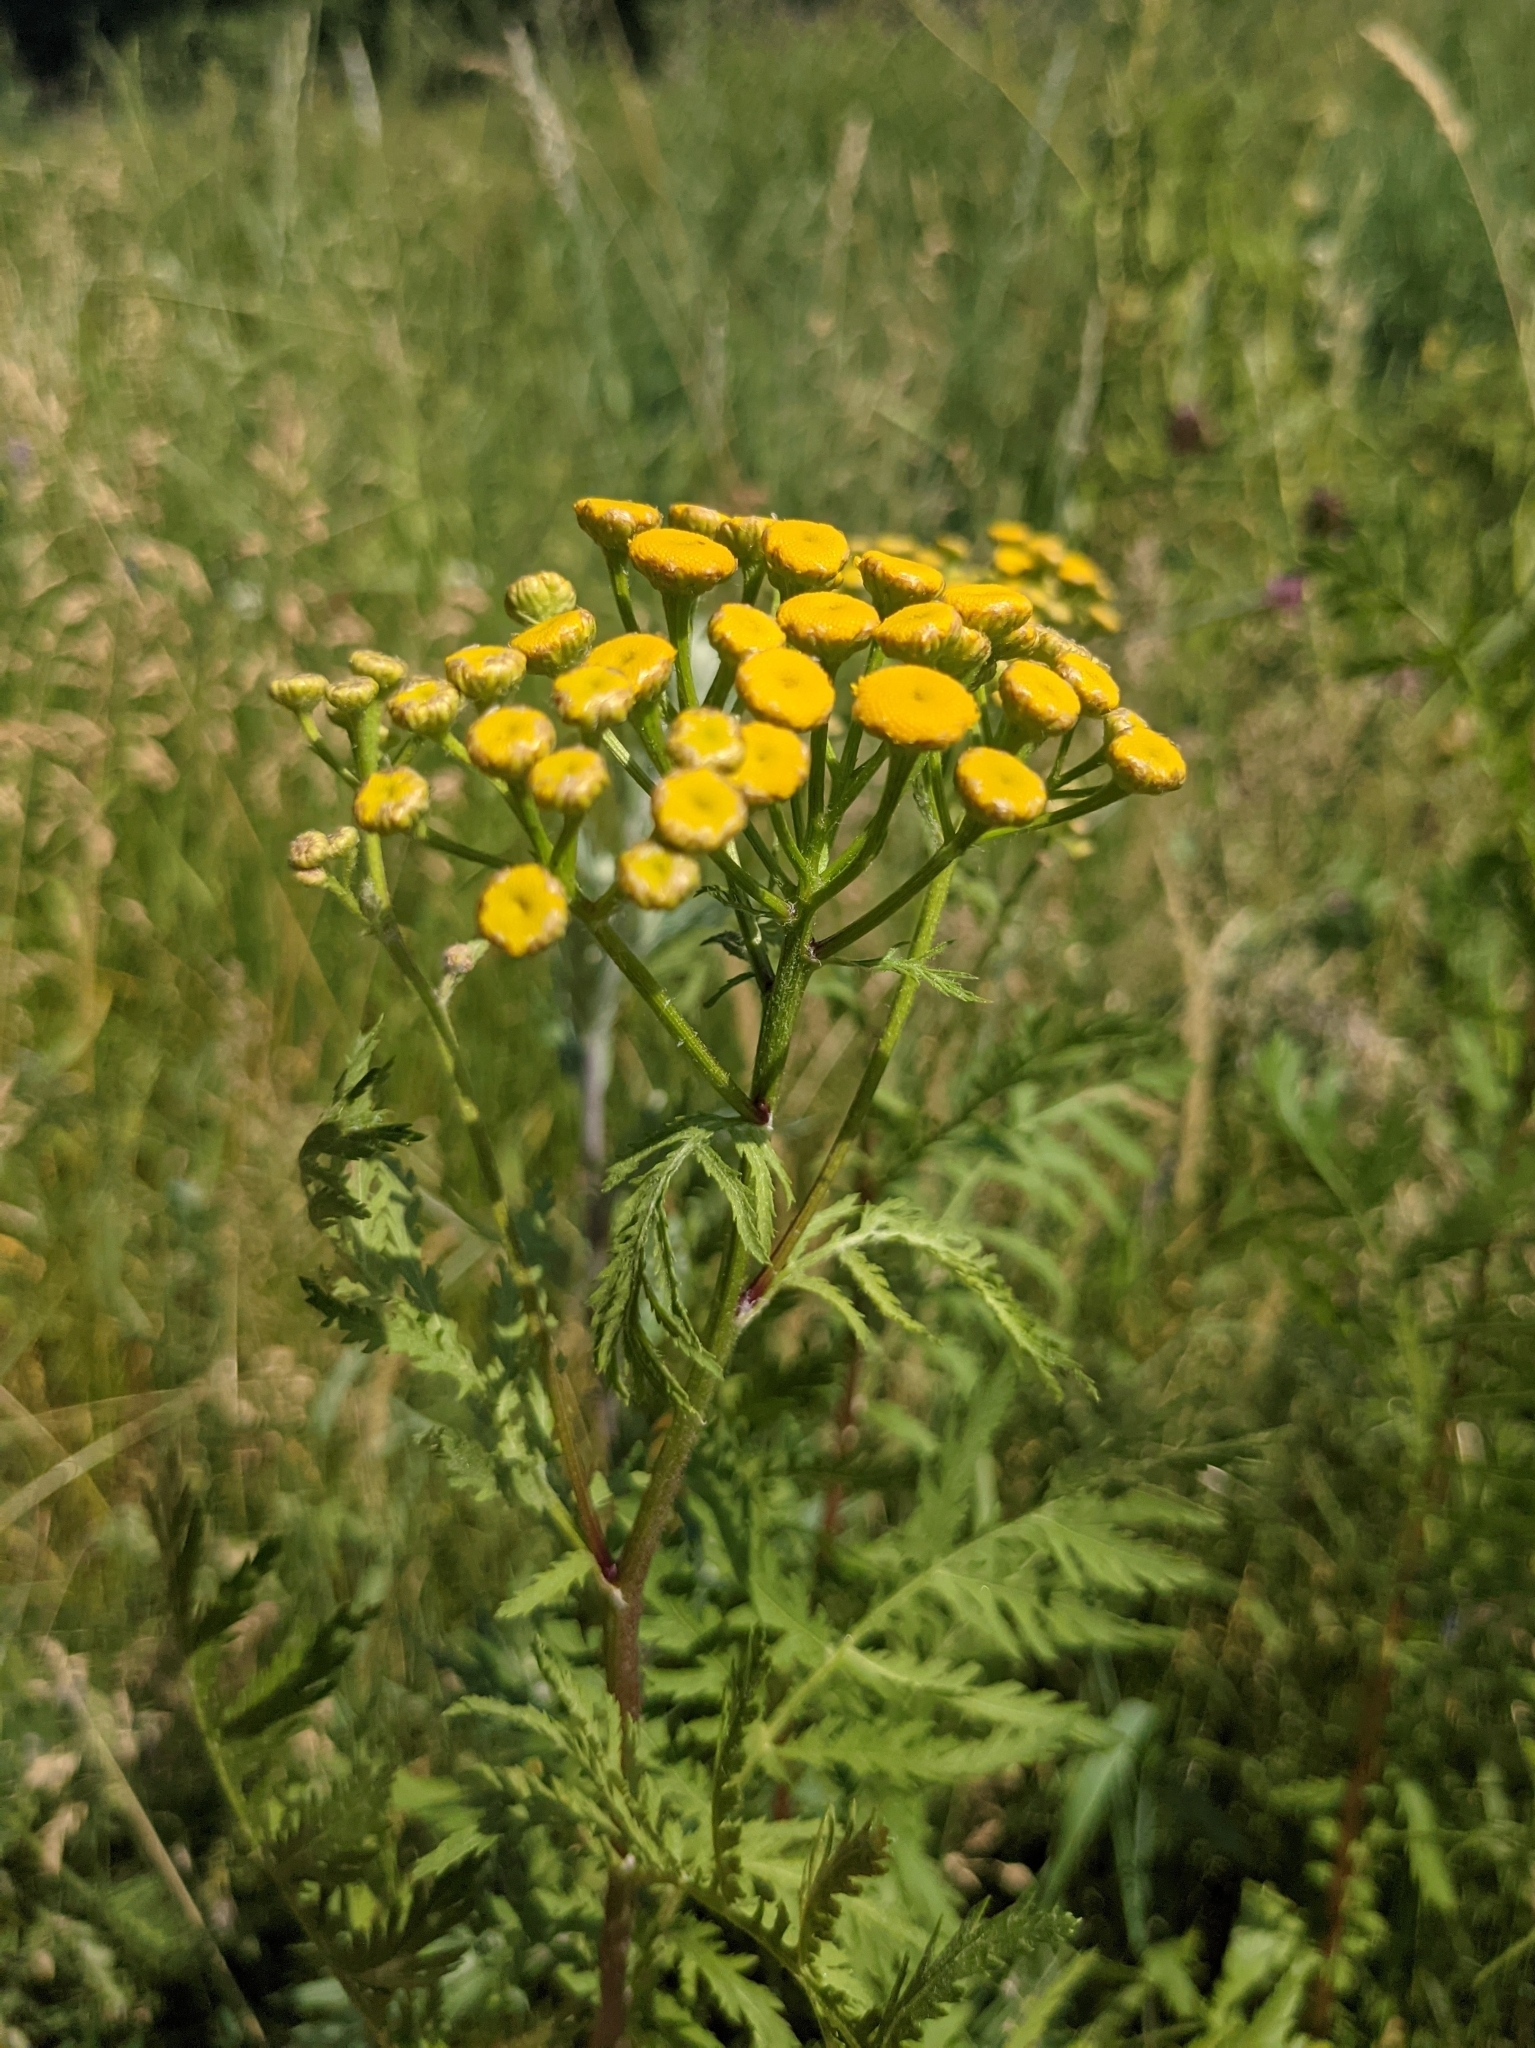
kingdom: Plantae
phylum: Tracheophyta
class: Magnoliopsida
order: Asterales
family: Asteraceae
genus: Tanacetum
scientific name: Tanacetum vulgare
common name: Common tansy
